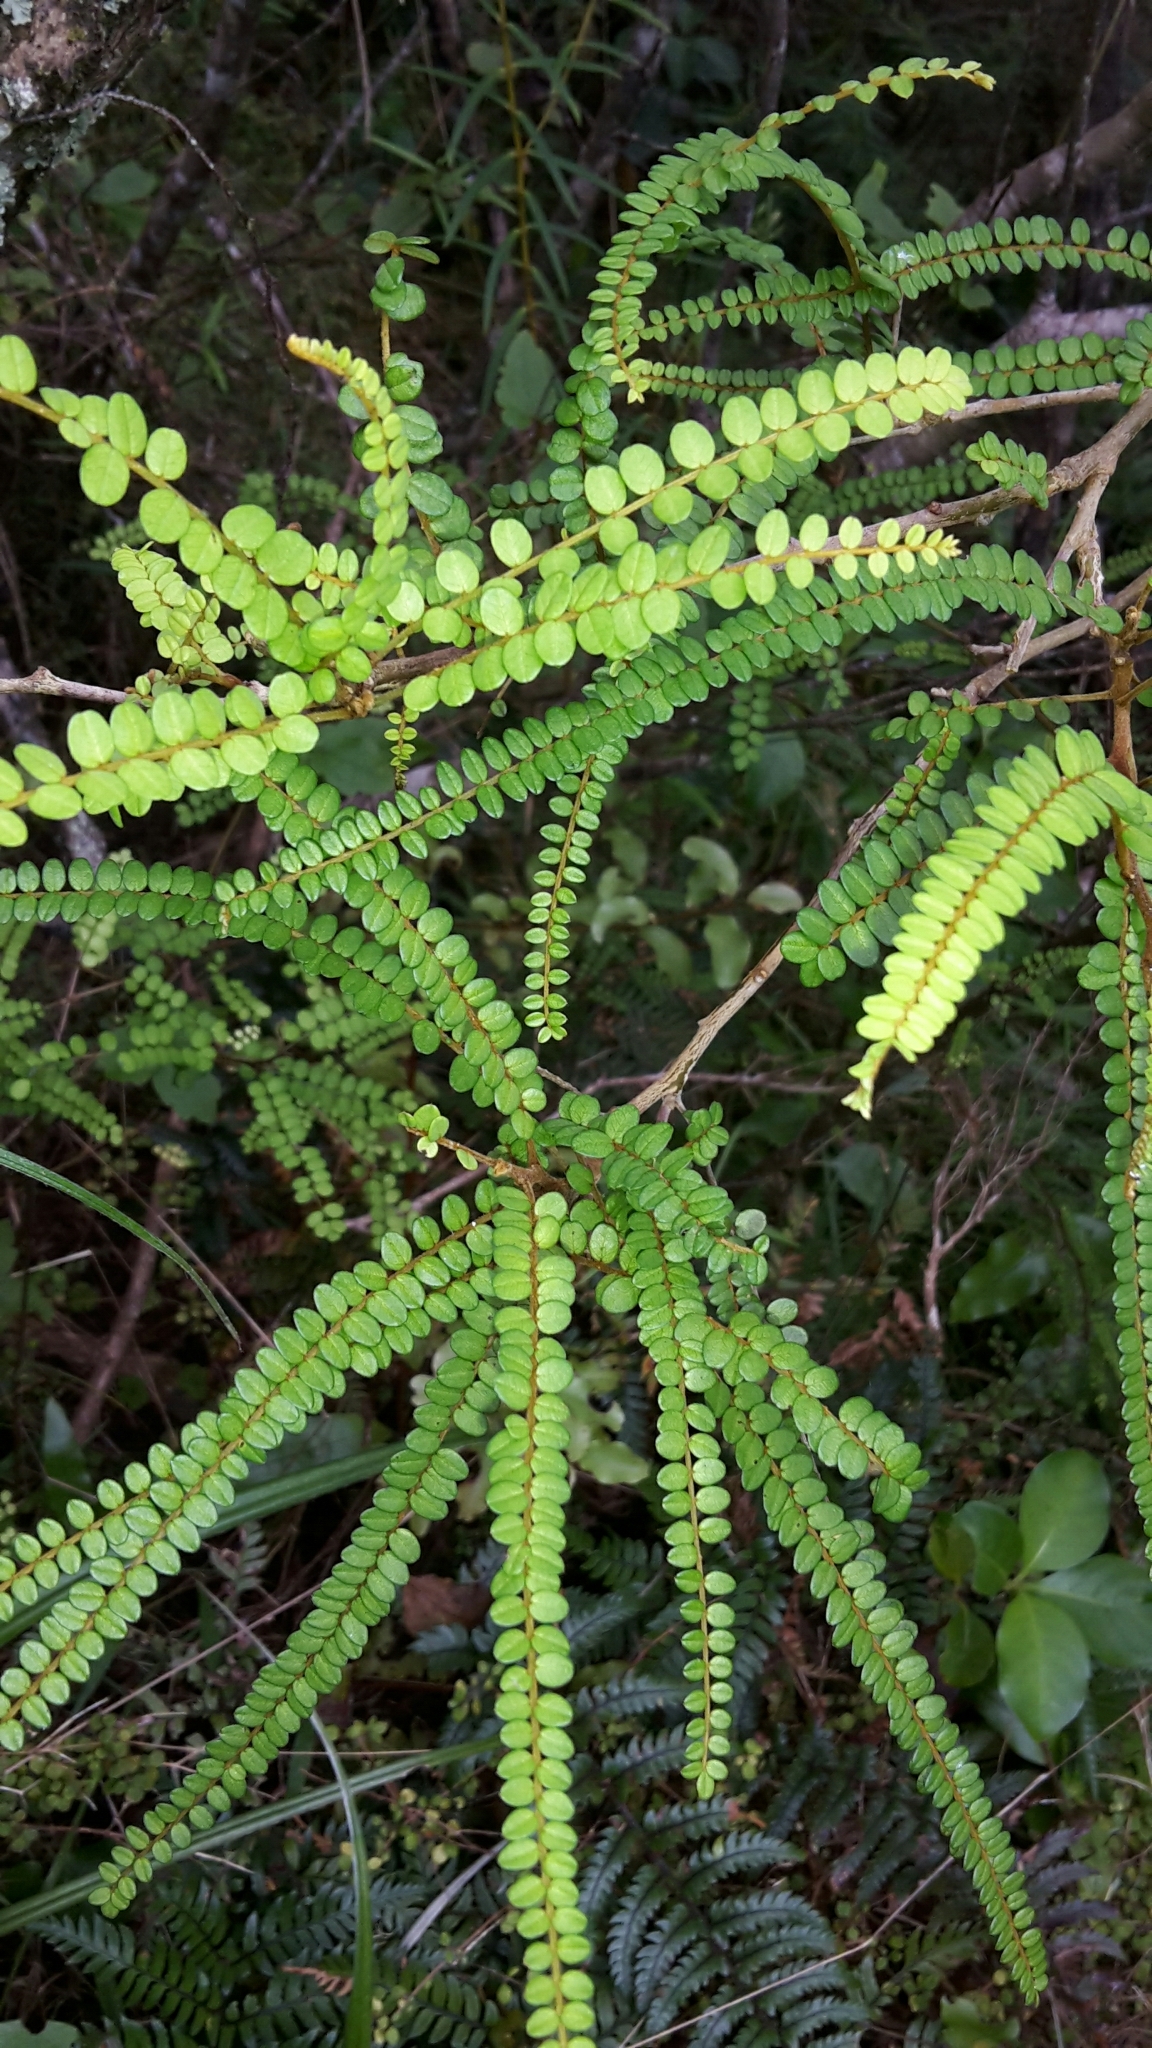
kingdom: Plantae
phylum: Tracheophyta
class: Magnoliopsida
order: Fabales
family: Fabaceae
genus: Sophora
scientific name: Sophora fulvida
